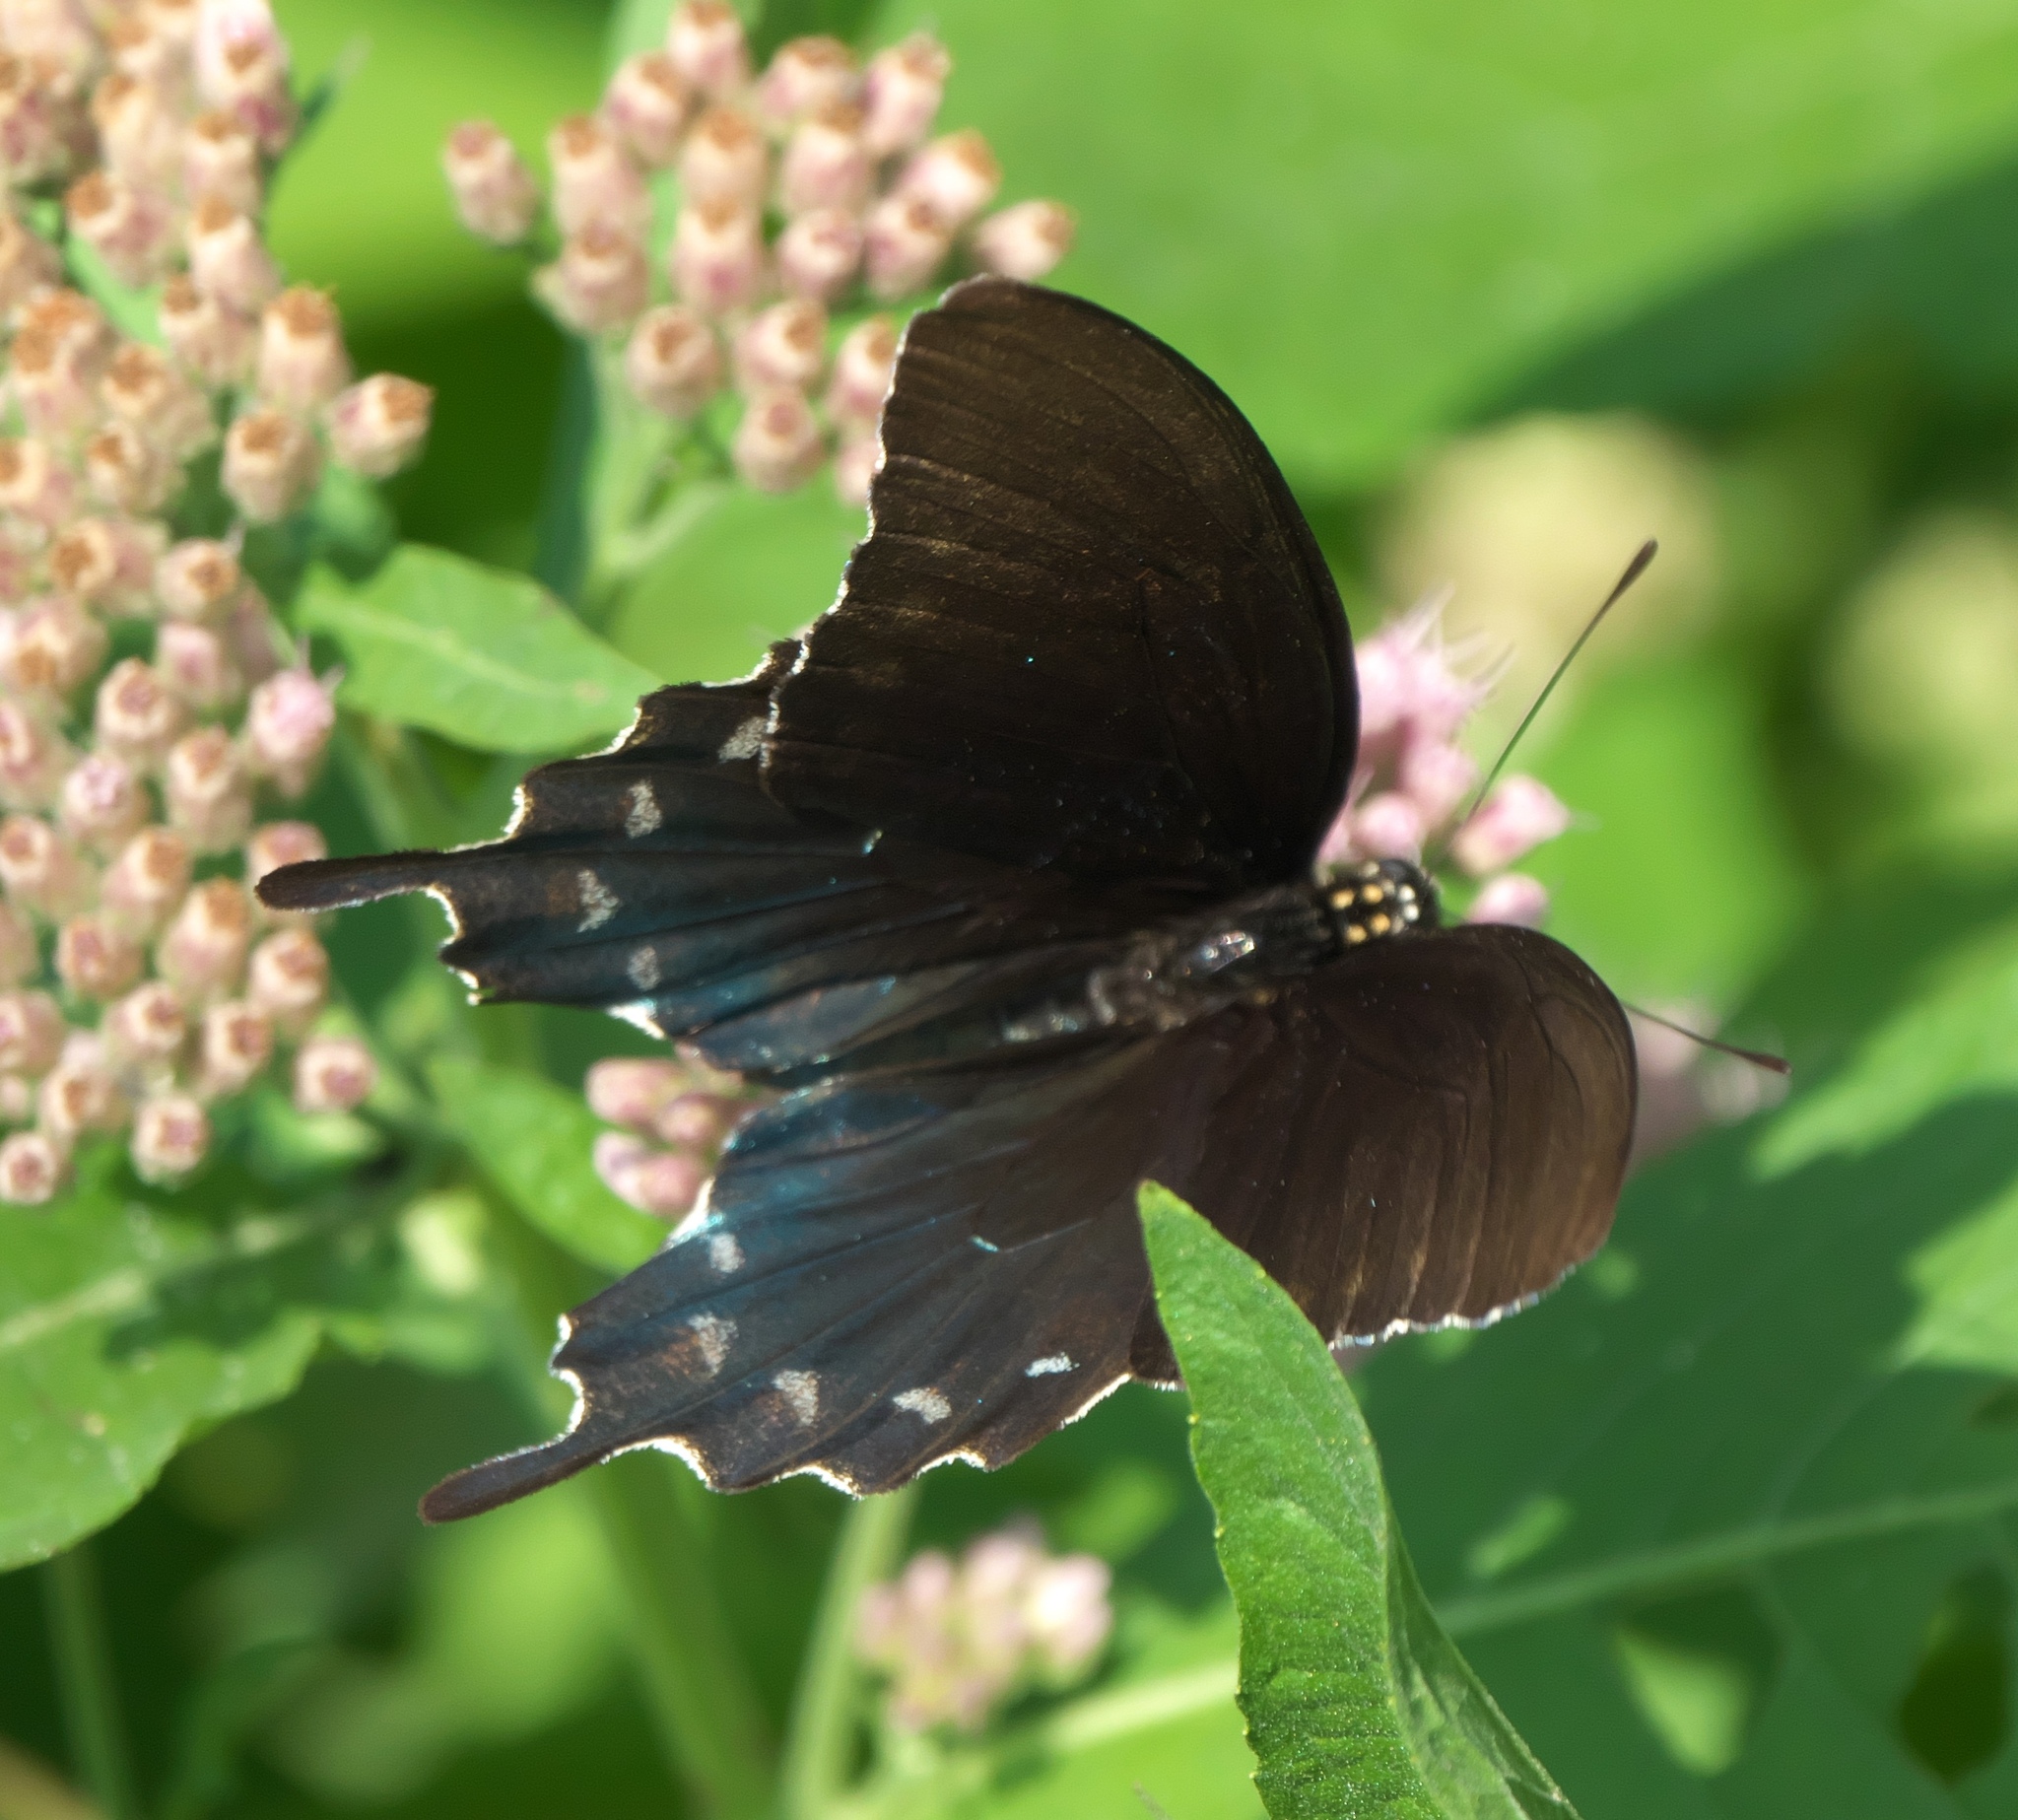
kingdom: Animalia
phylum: Arthropoda
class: Insecta
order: Lepidoptera
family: Papilionidae
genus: Battus
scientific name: Battus philenor
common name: Pipevine swallowtail
